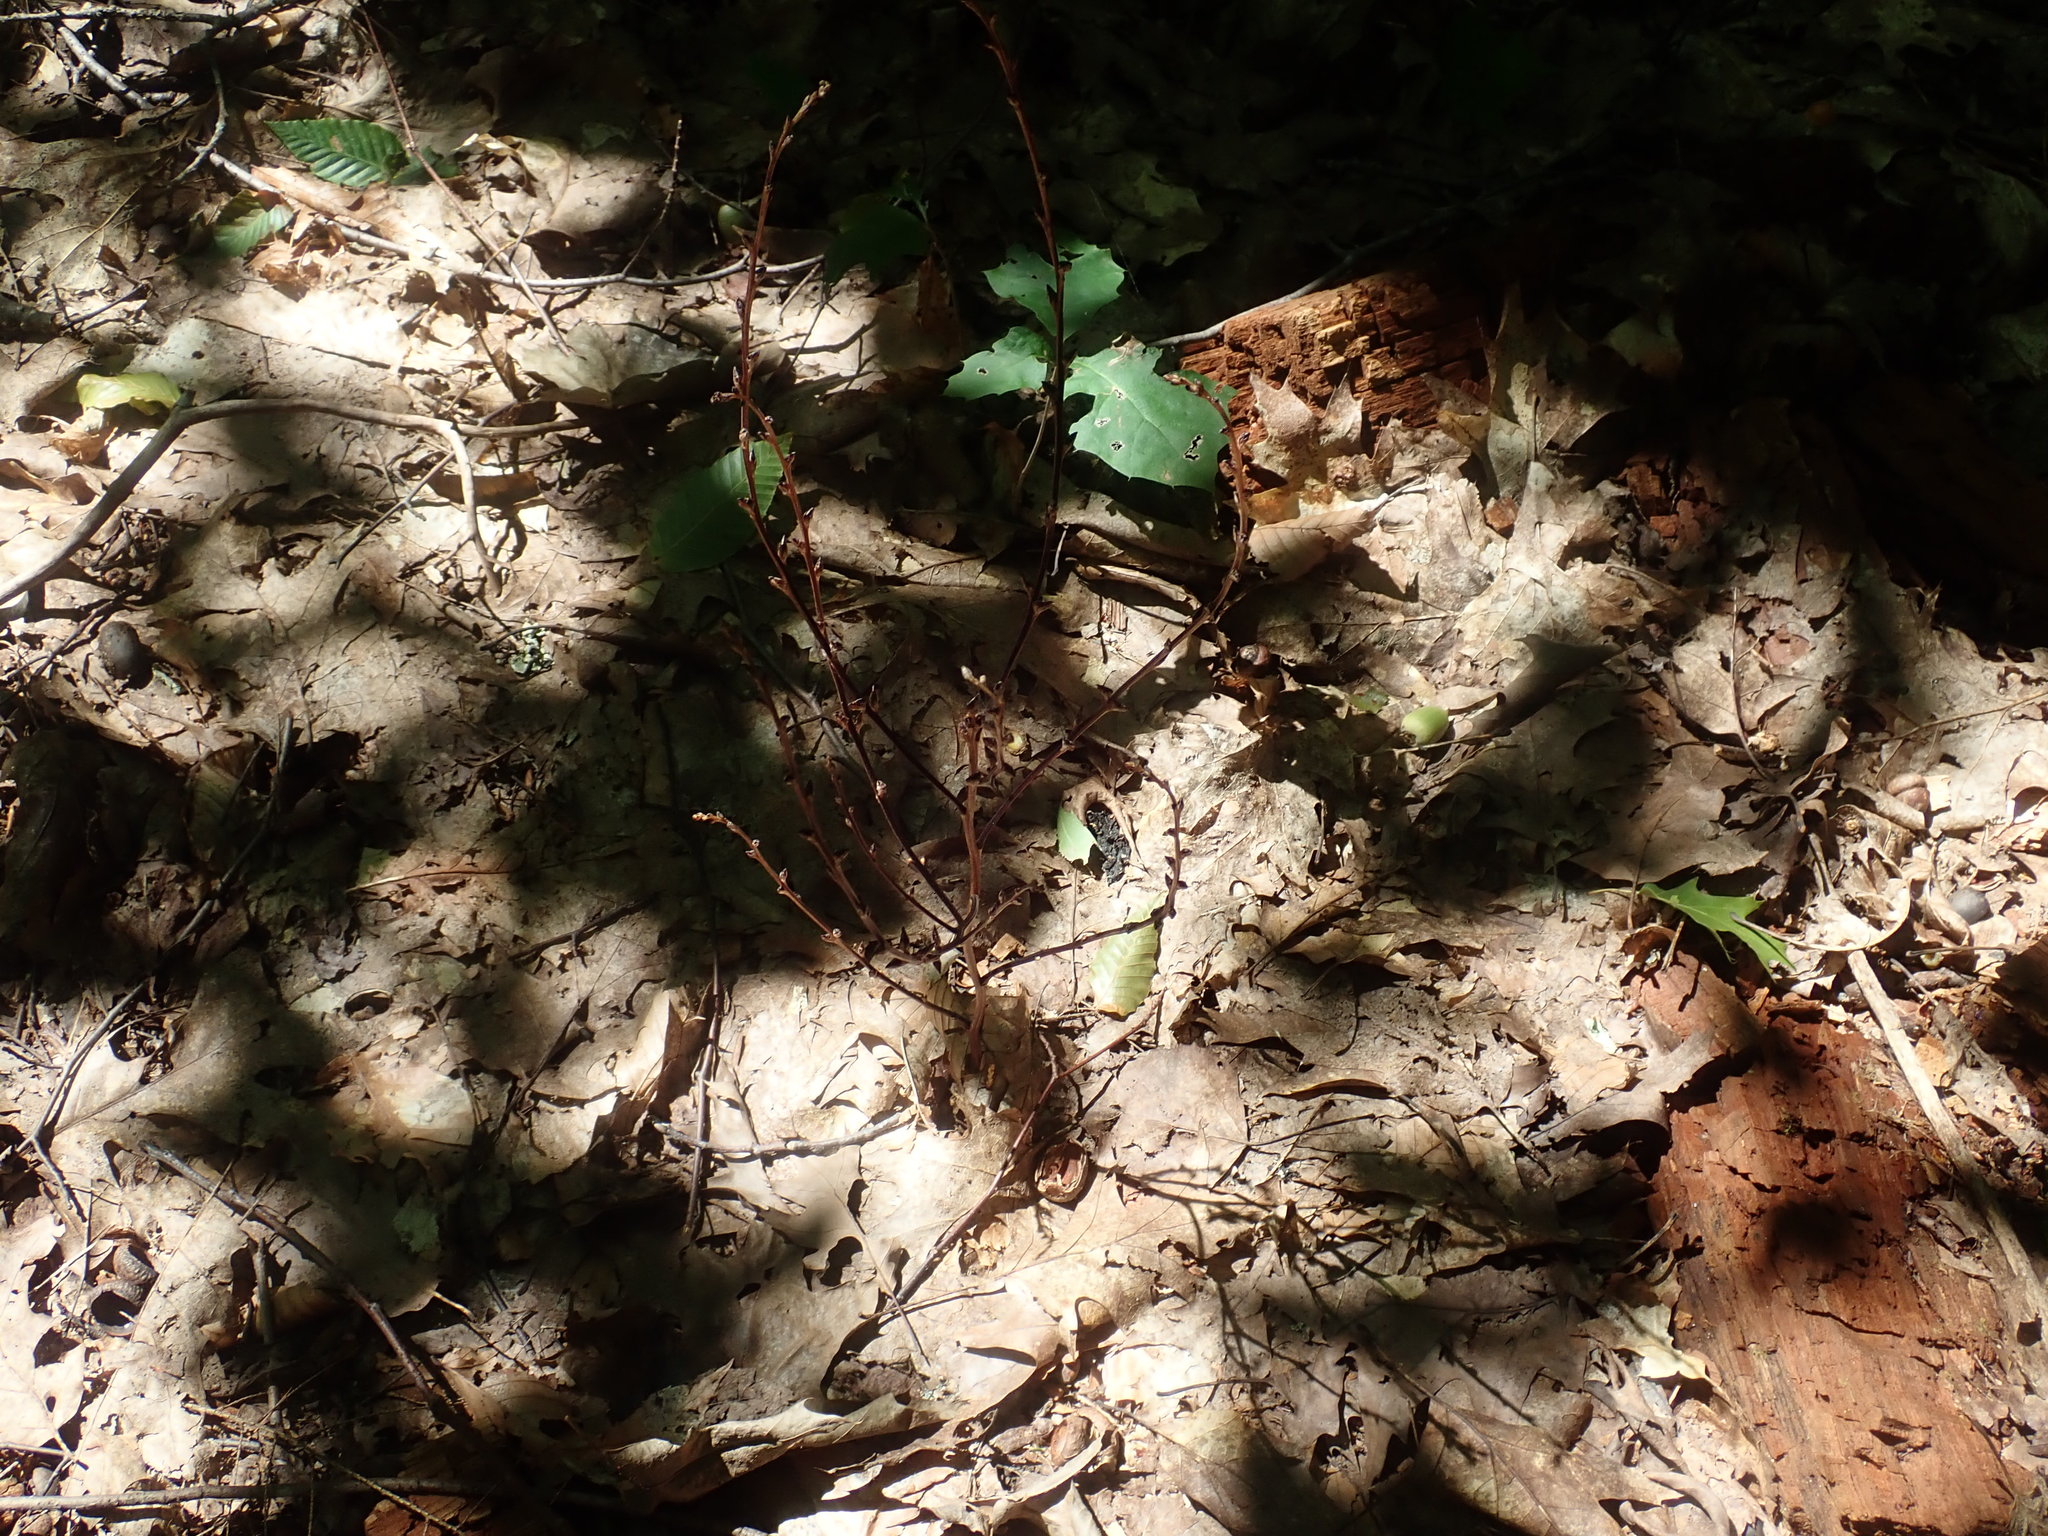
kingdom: Plantae
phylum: Tracheophyta
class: Magnoliopsida
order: Lamiales
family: Orobanchaceae
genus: Epifagus
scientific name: Epifagus virginiana
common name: Beechdrops
